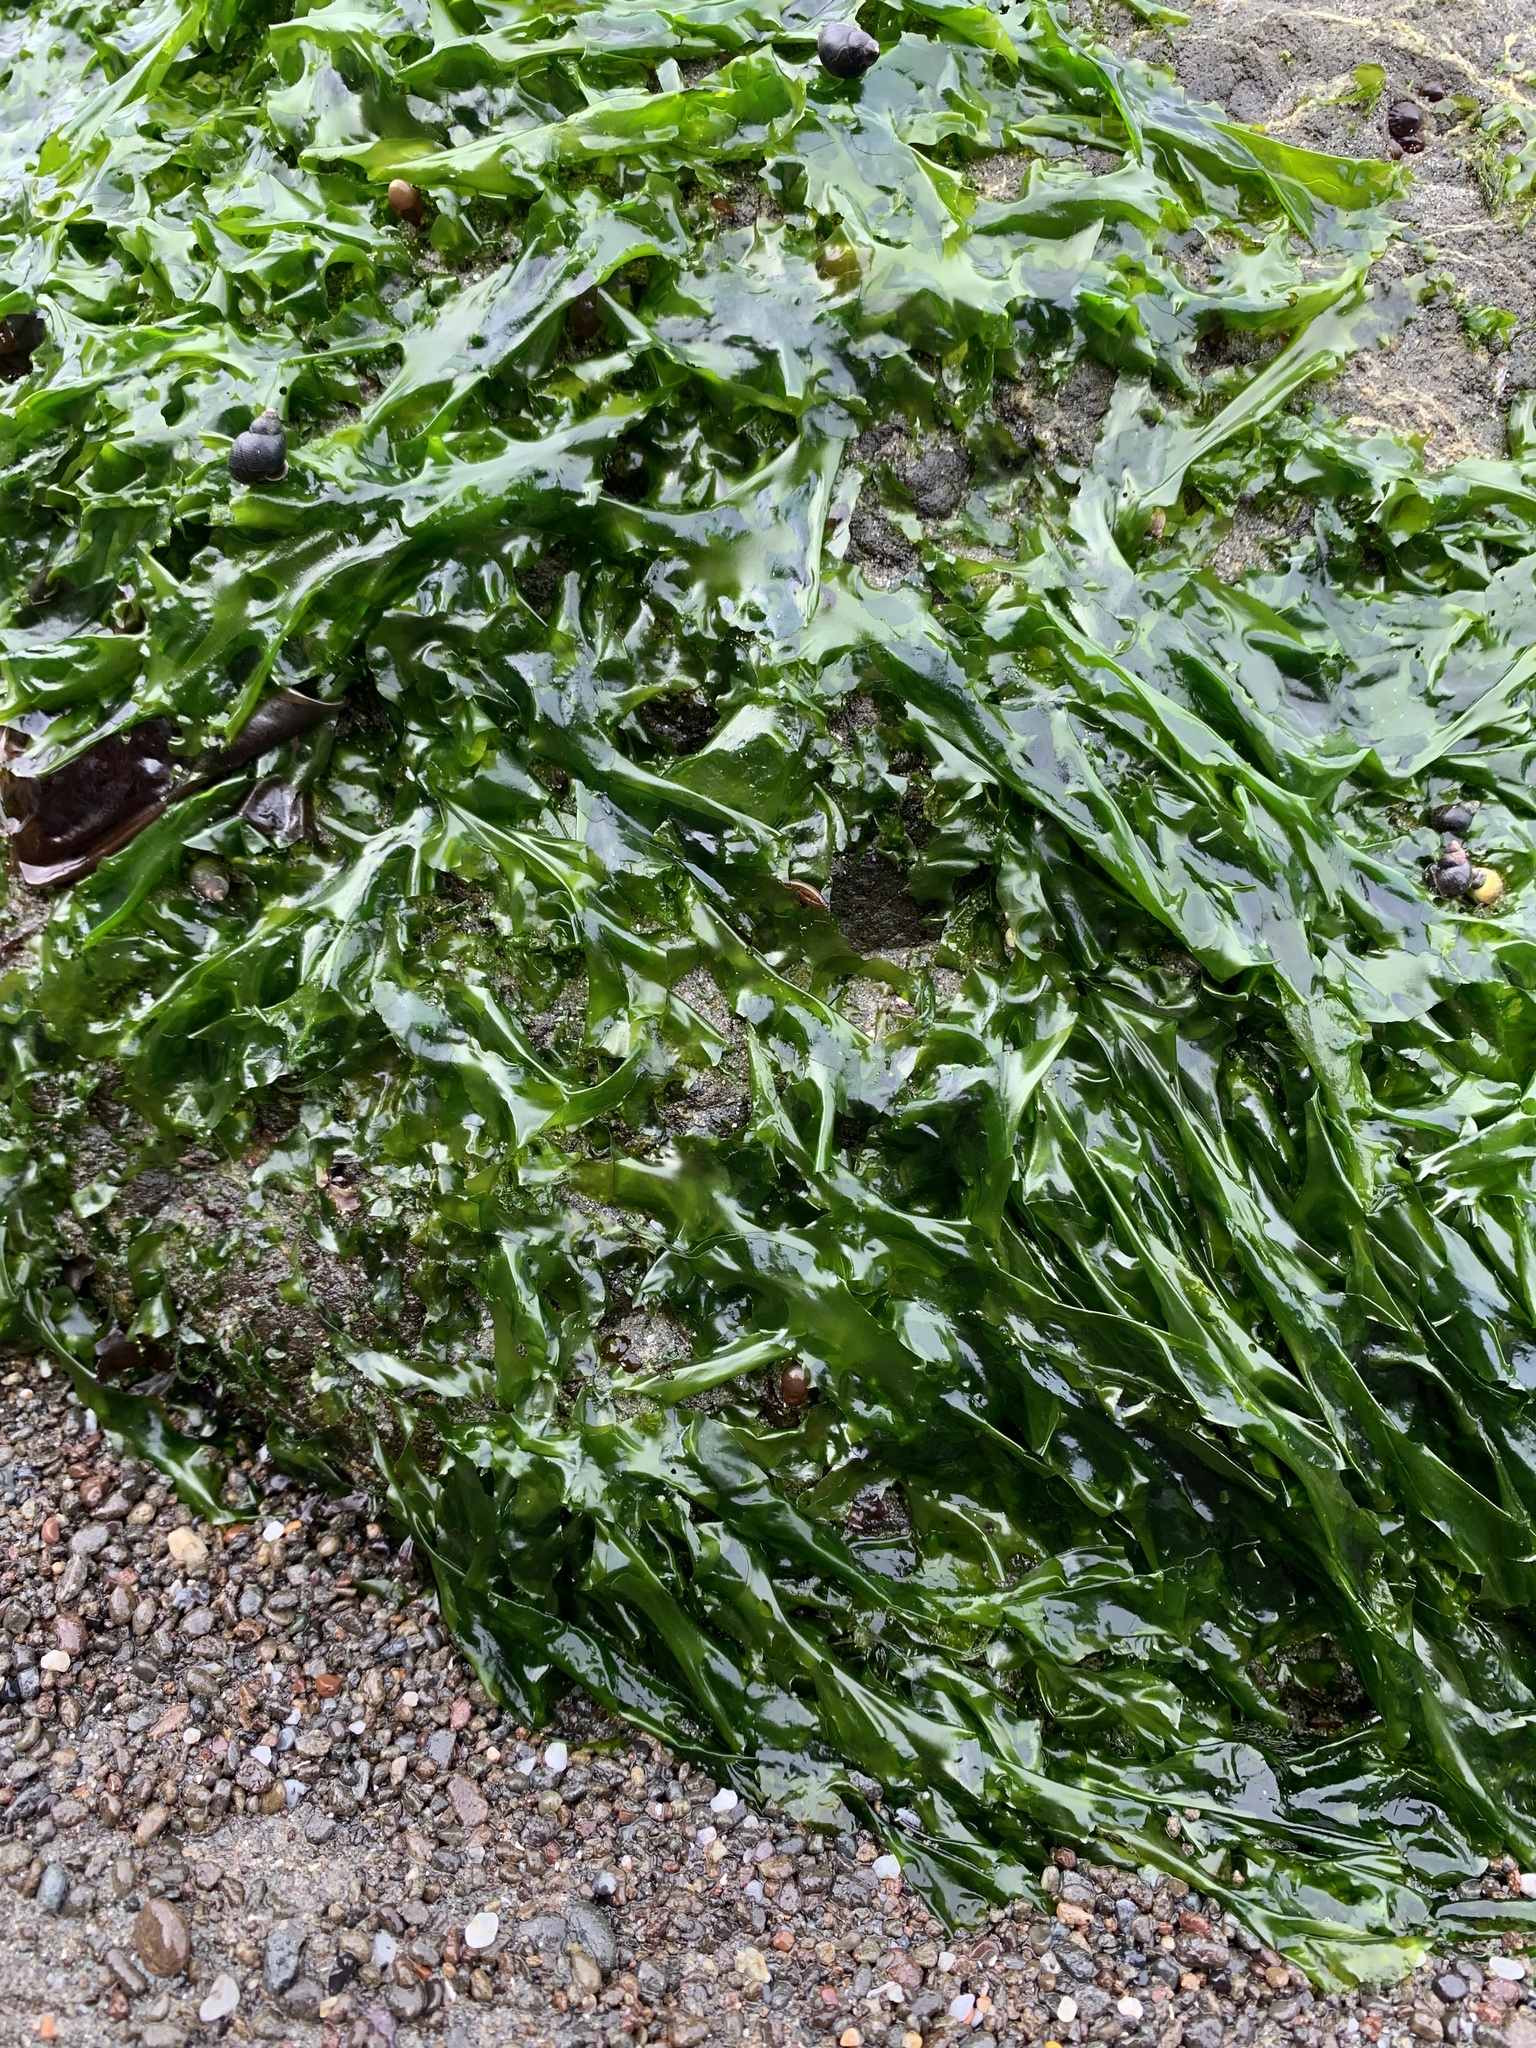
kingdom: Plantae
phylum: Chlorophyta
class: Ulvophyceae
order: Ulvales
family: Ulvaceae
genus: Ulva
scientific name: Ulva lactuca
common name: Sea lettuce
